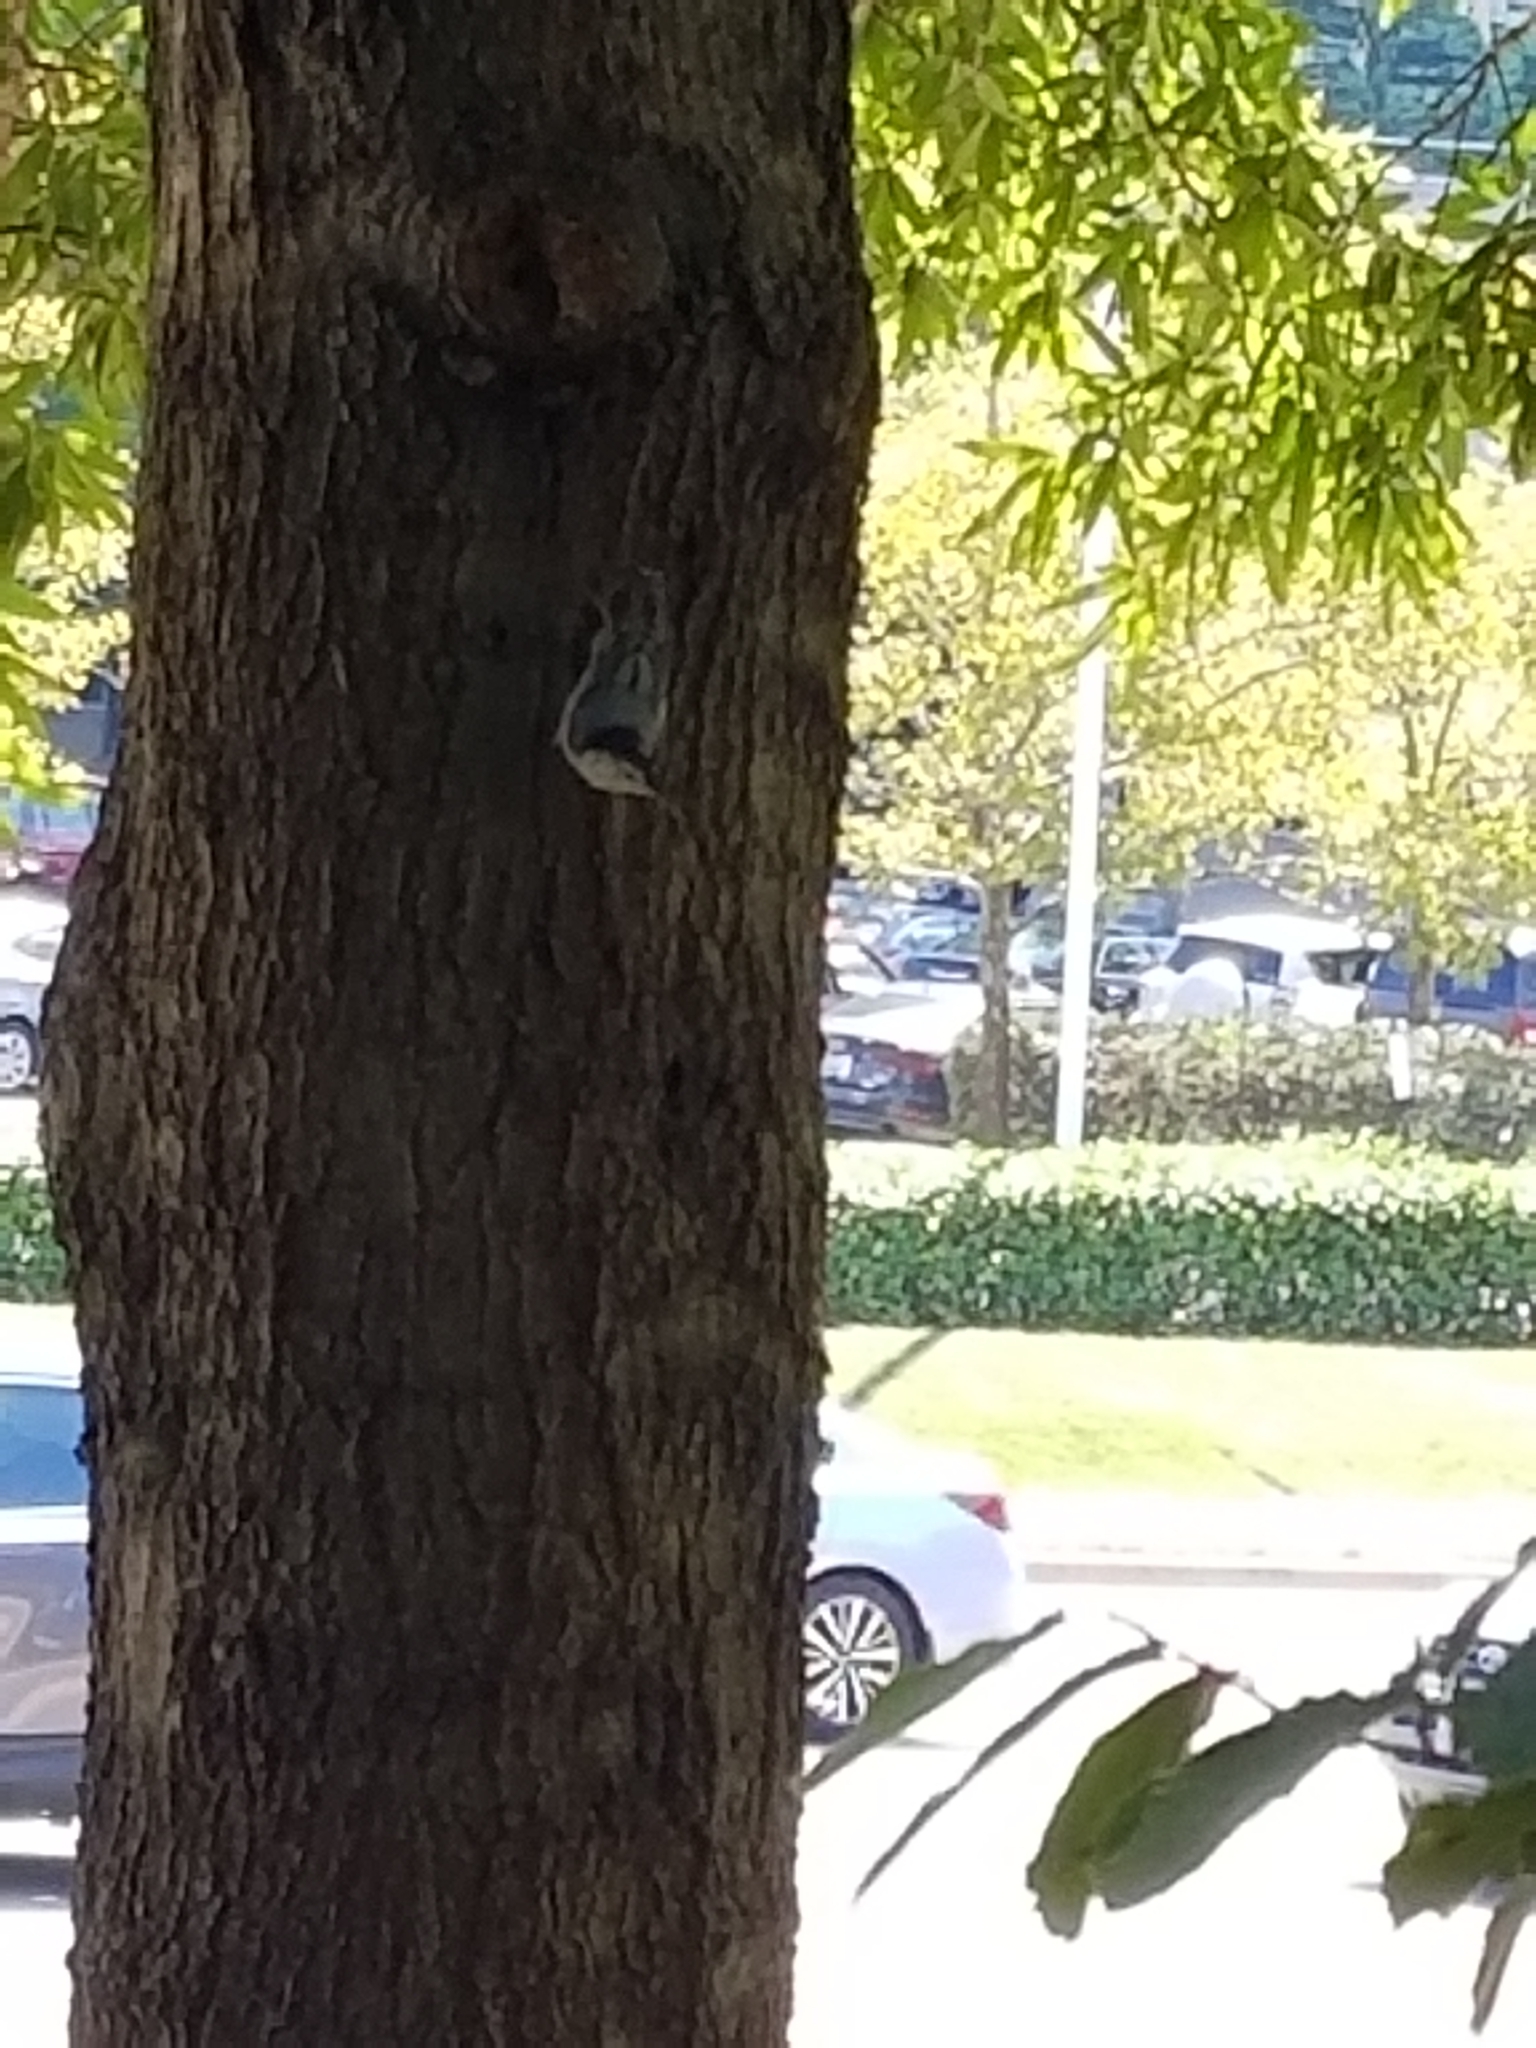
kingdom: Animalia
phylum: Chordata
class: Aves
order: Passeriformes
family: Sittidae
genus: Sitta
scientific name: Sitta carolinensis
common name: White-breasted nuthatch
